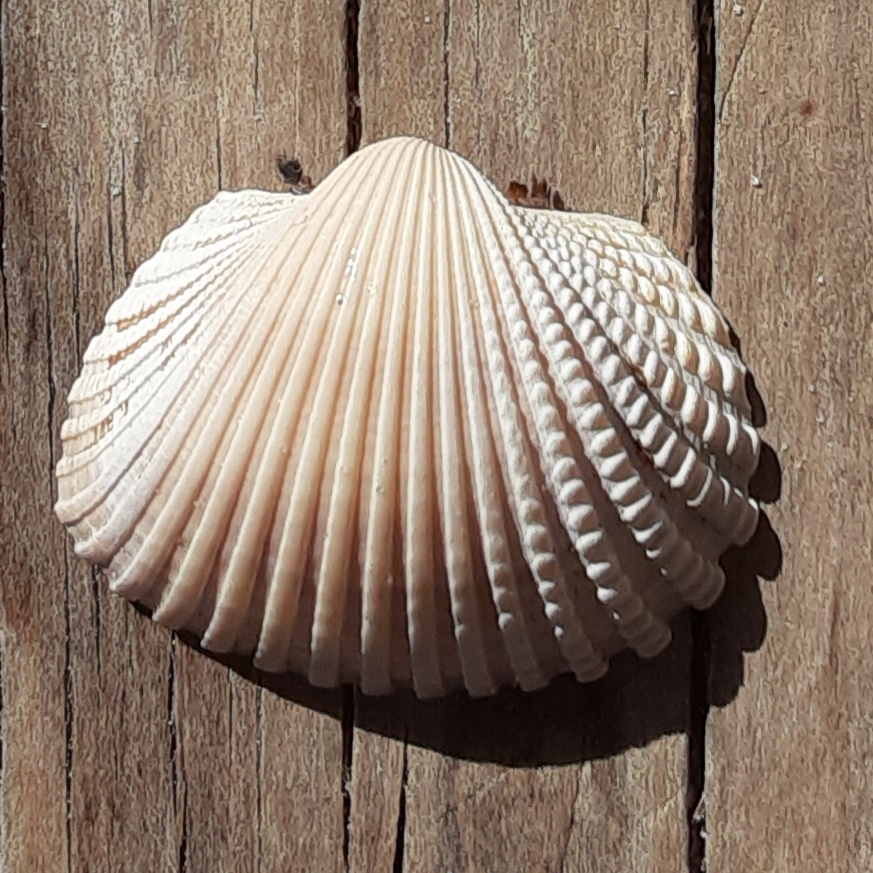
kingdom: Animalia
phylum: Mollusca
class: Bivalvia
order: Arcida
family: Arcidae
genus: Anadara
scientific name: Anadara brasiliana
